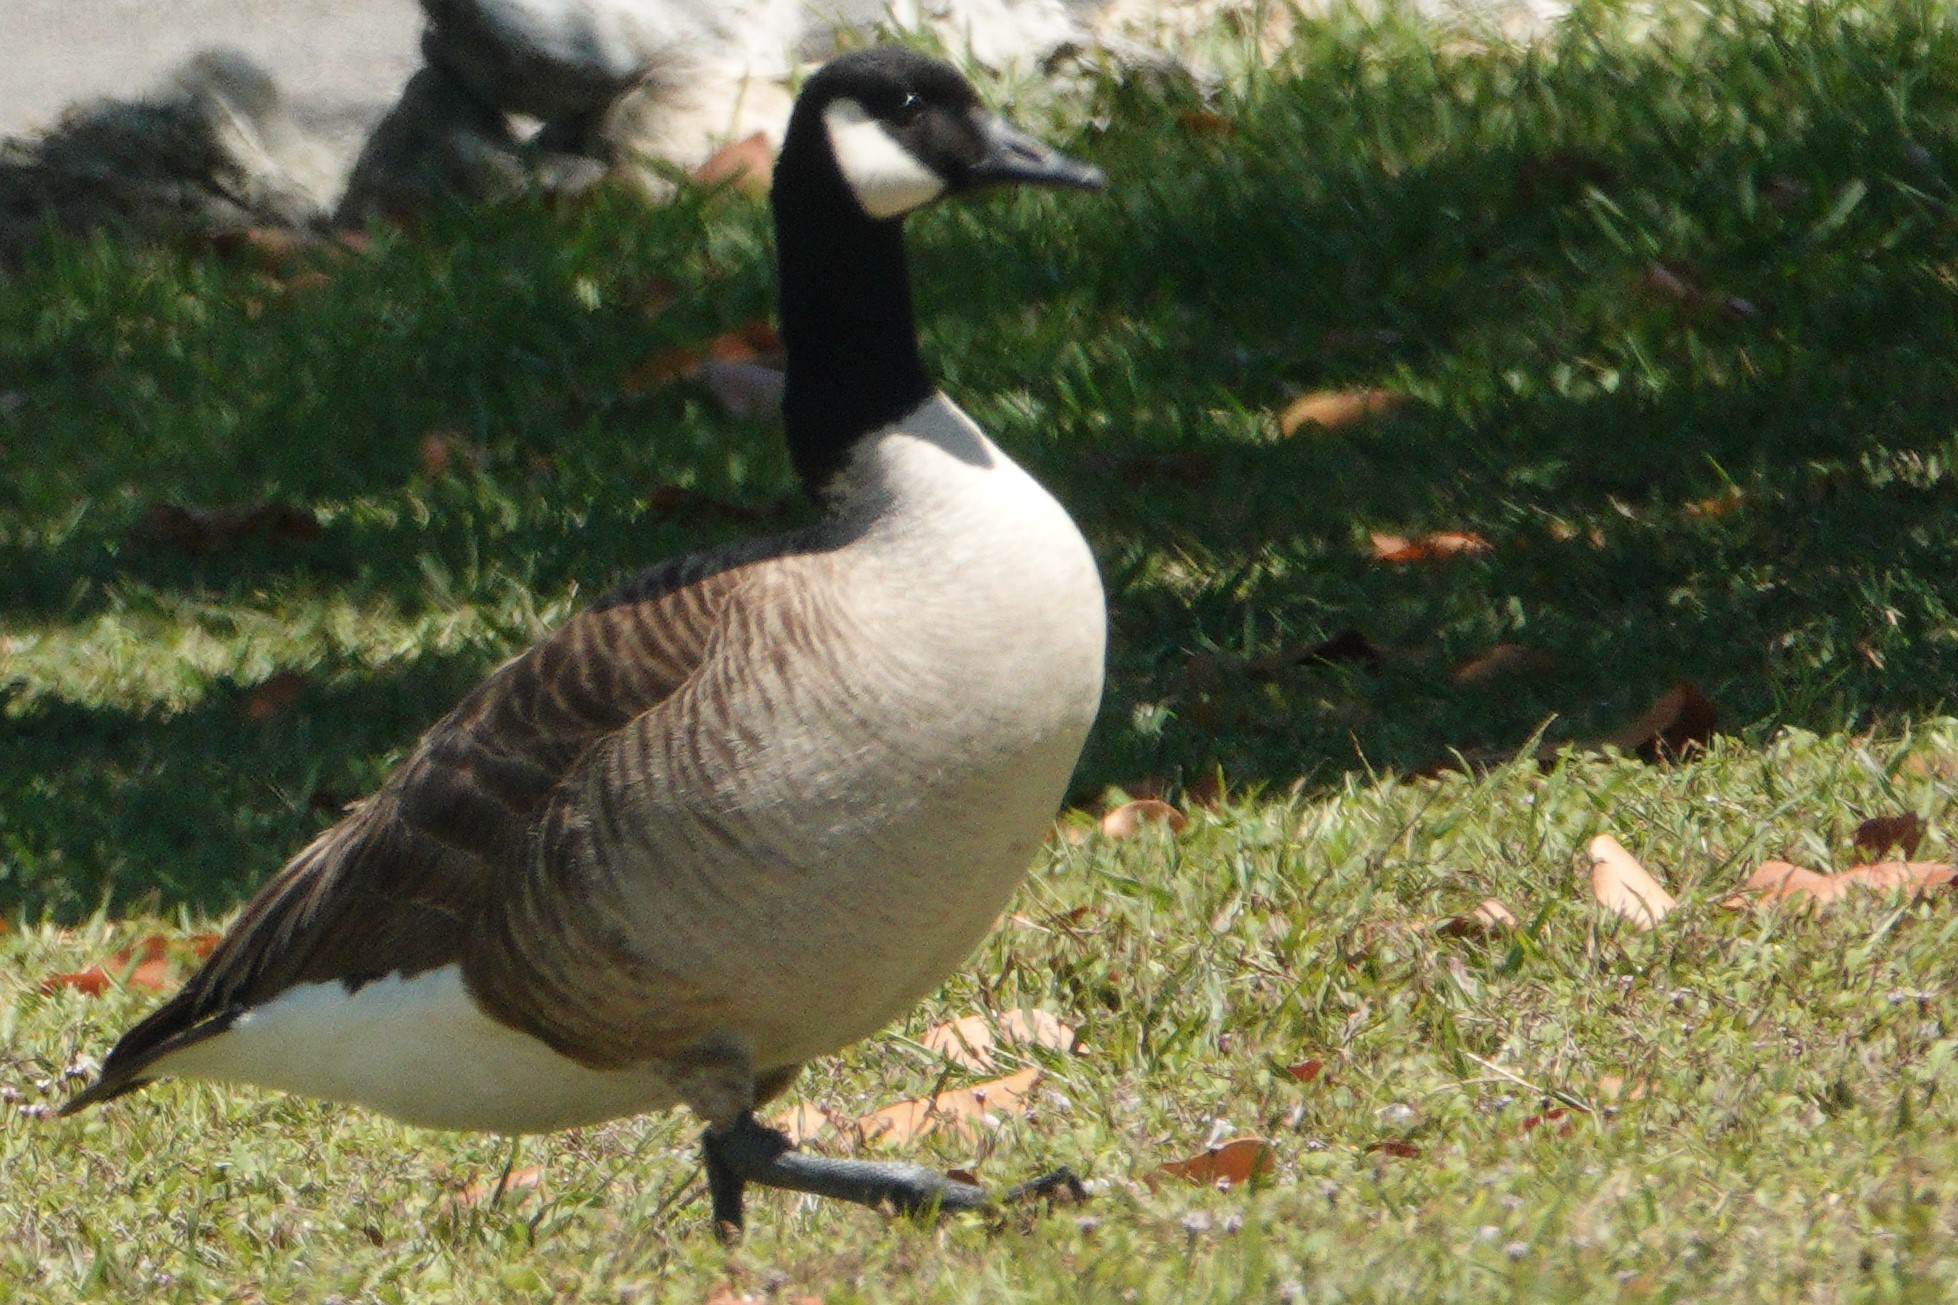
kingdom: Animalia
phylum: Chordata
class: Aves
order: Anseriformes
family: Anatidae
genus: Branta
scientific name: Branta canadensis
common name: Canada goose
